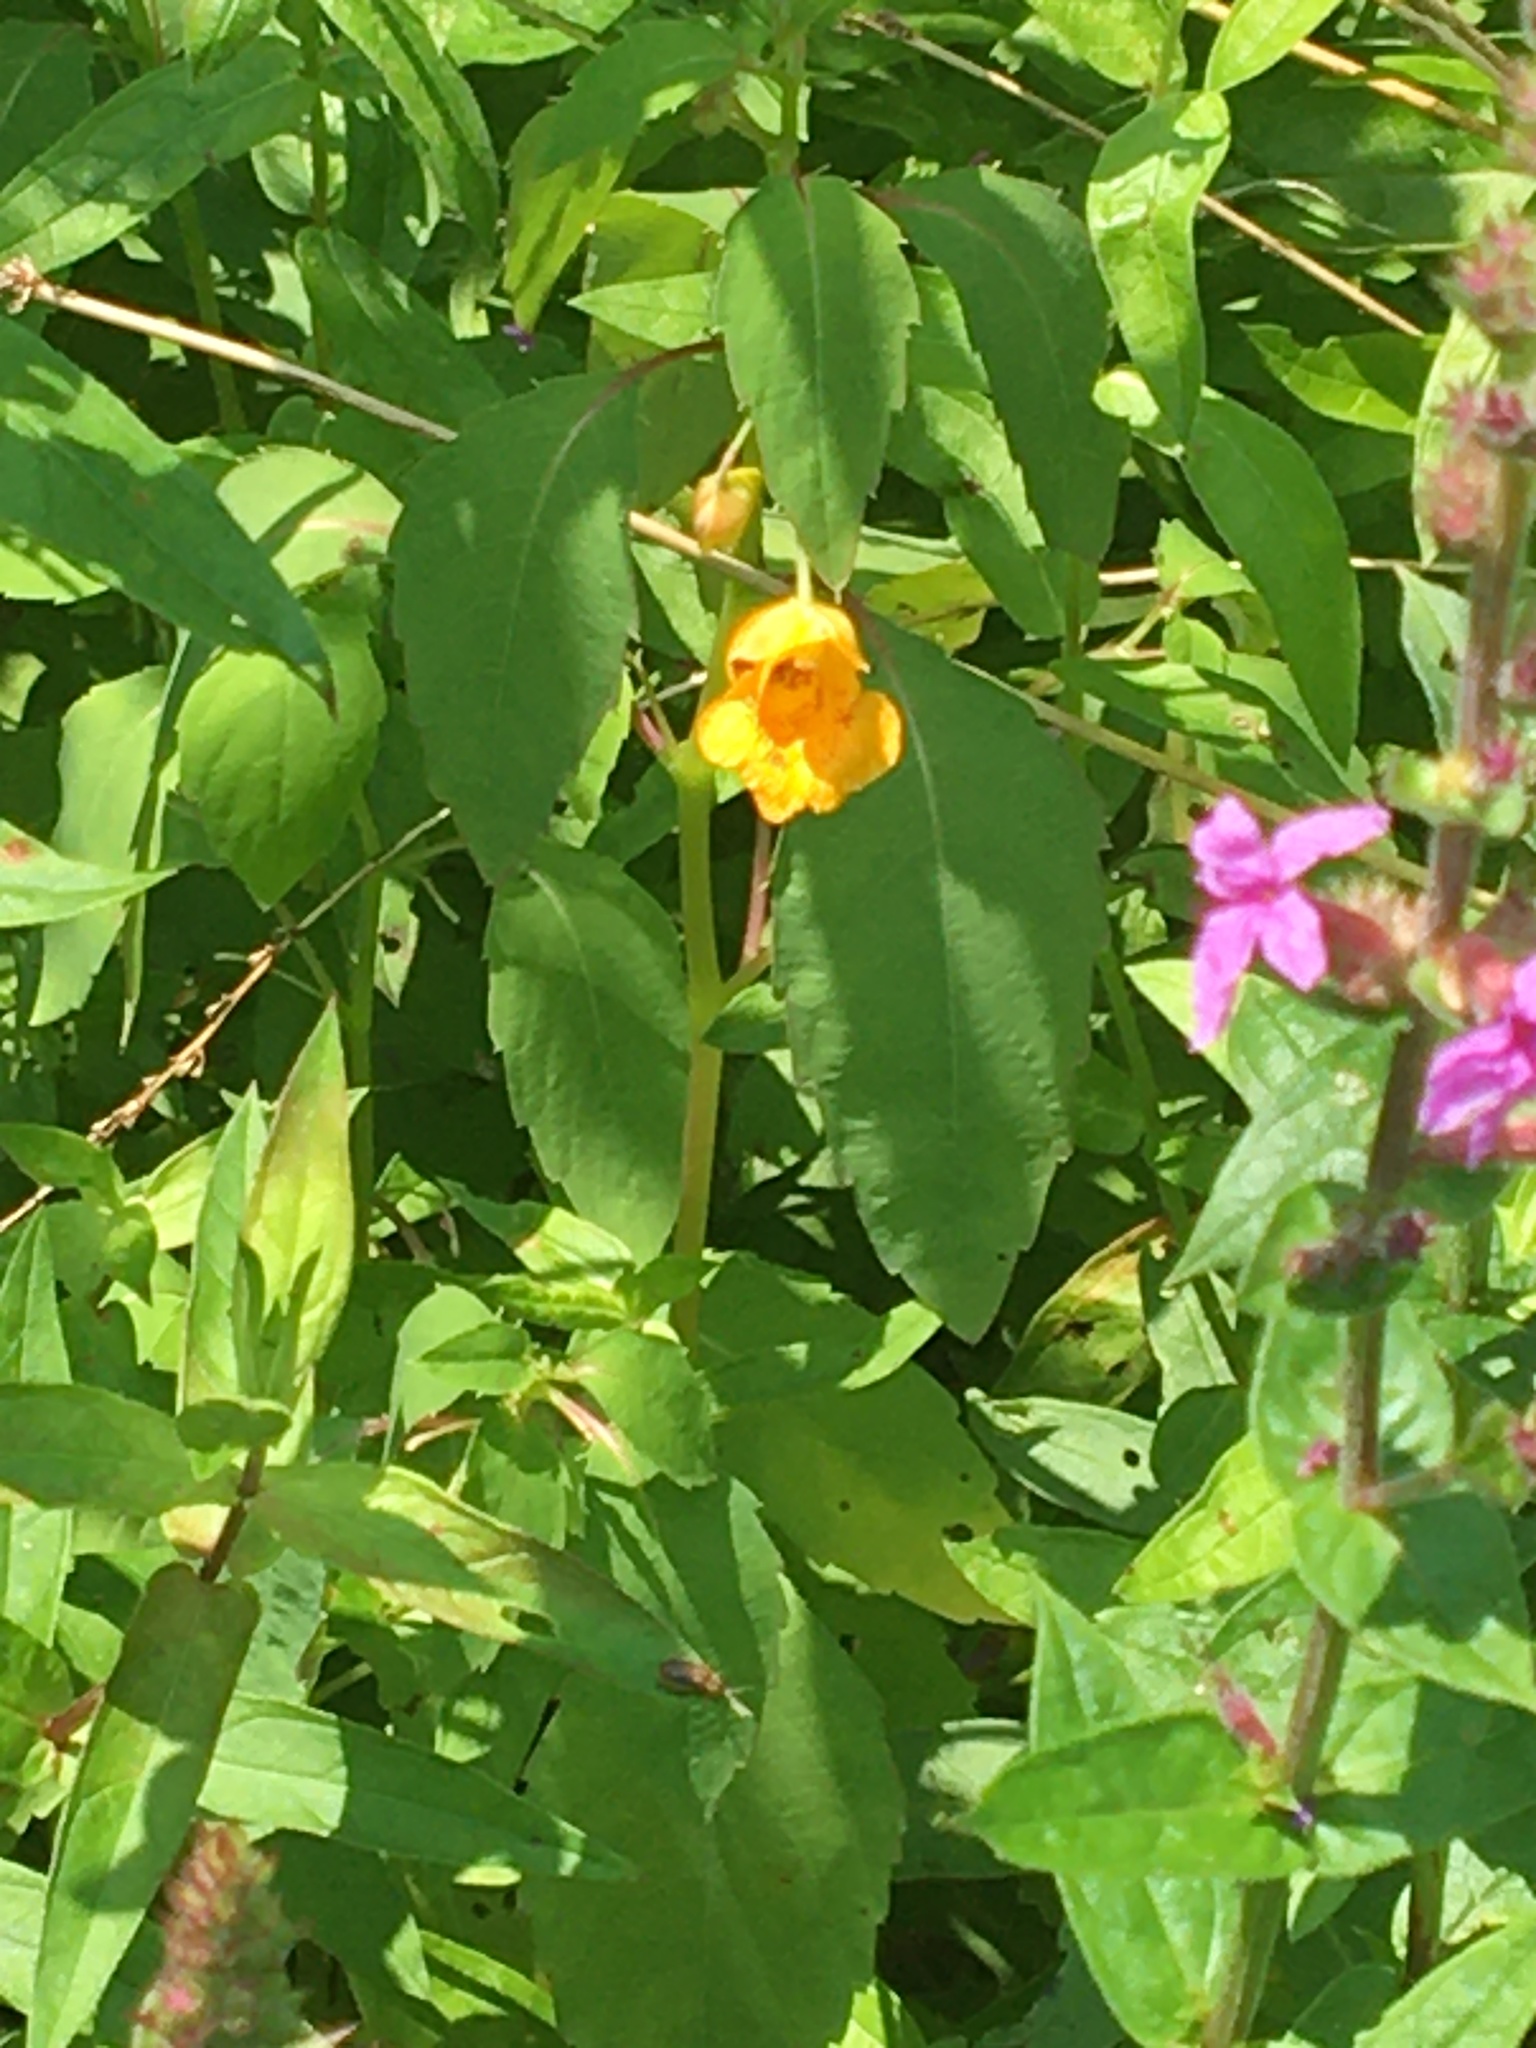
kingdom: Plantae
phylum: Tracheophyta
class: Magnoliopsida
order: Ericales
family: Balsaminaceae
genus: Impatiens
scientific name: Impatiens capensis
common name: Orange balsam
